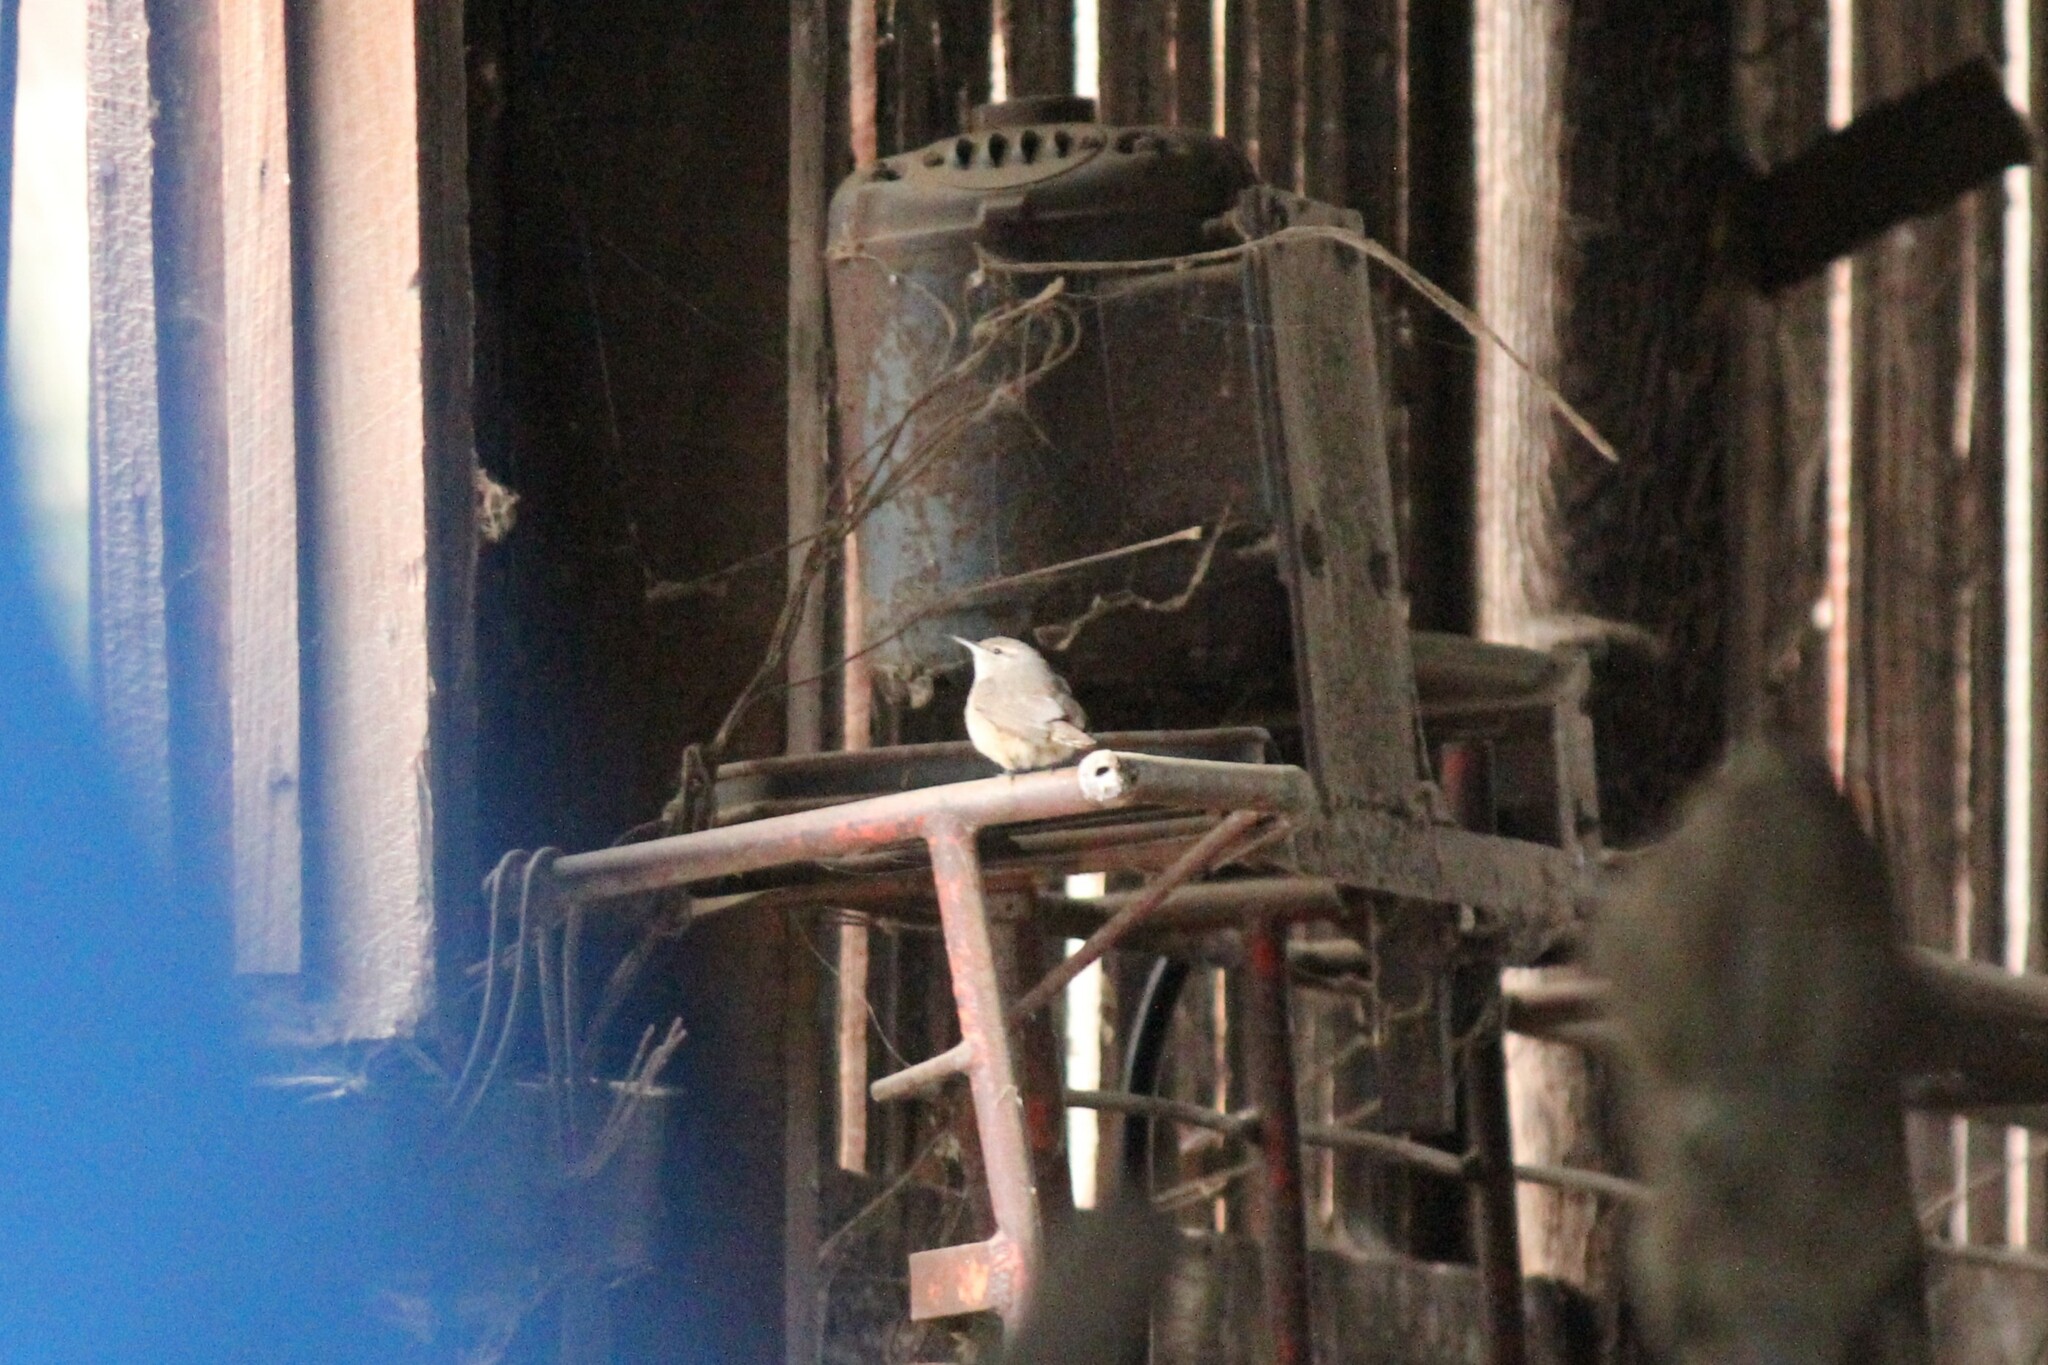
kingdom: Animalia
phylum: Chordata
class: Aves
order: Passeriformes
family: Troglodytidae
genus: Salpinctes
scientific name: Salpinctes obsoletus
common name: Rock wren
